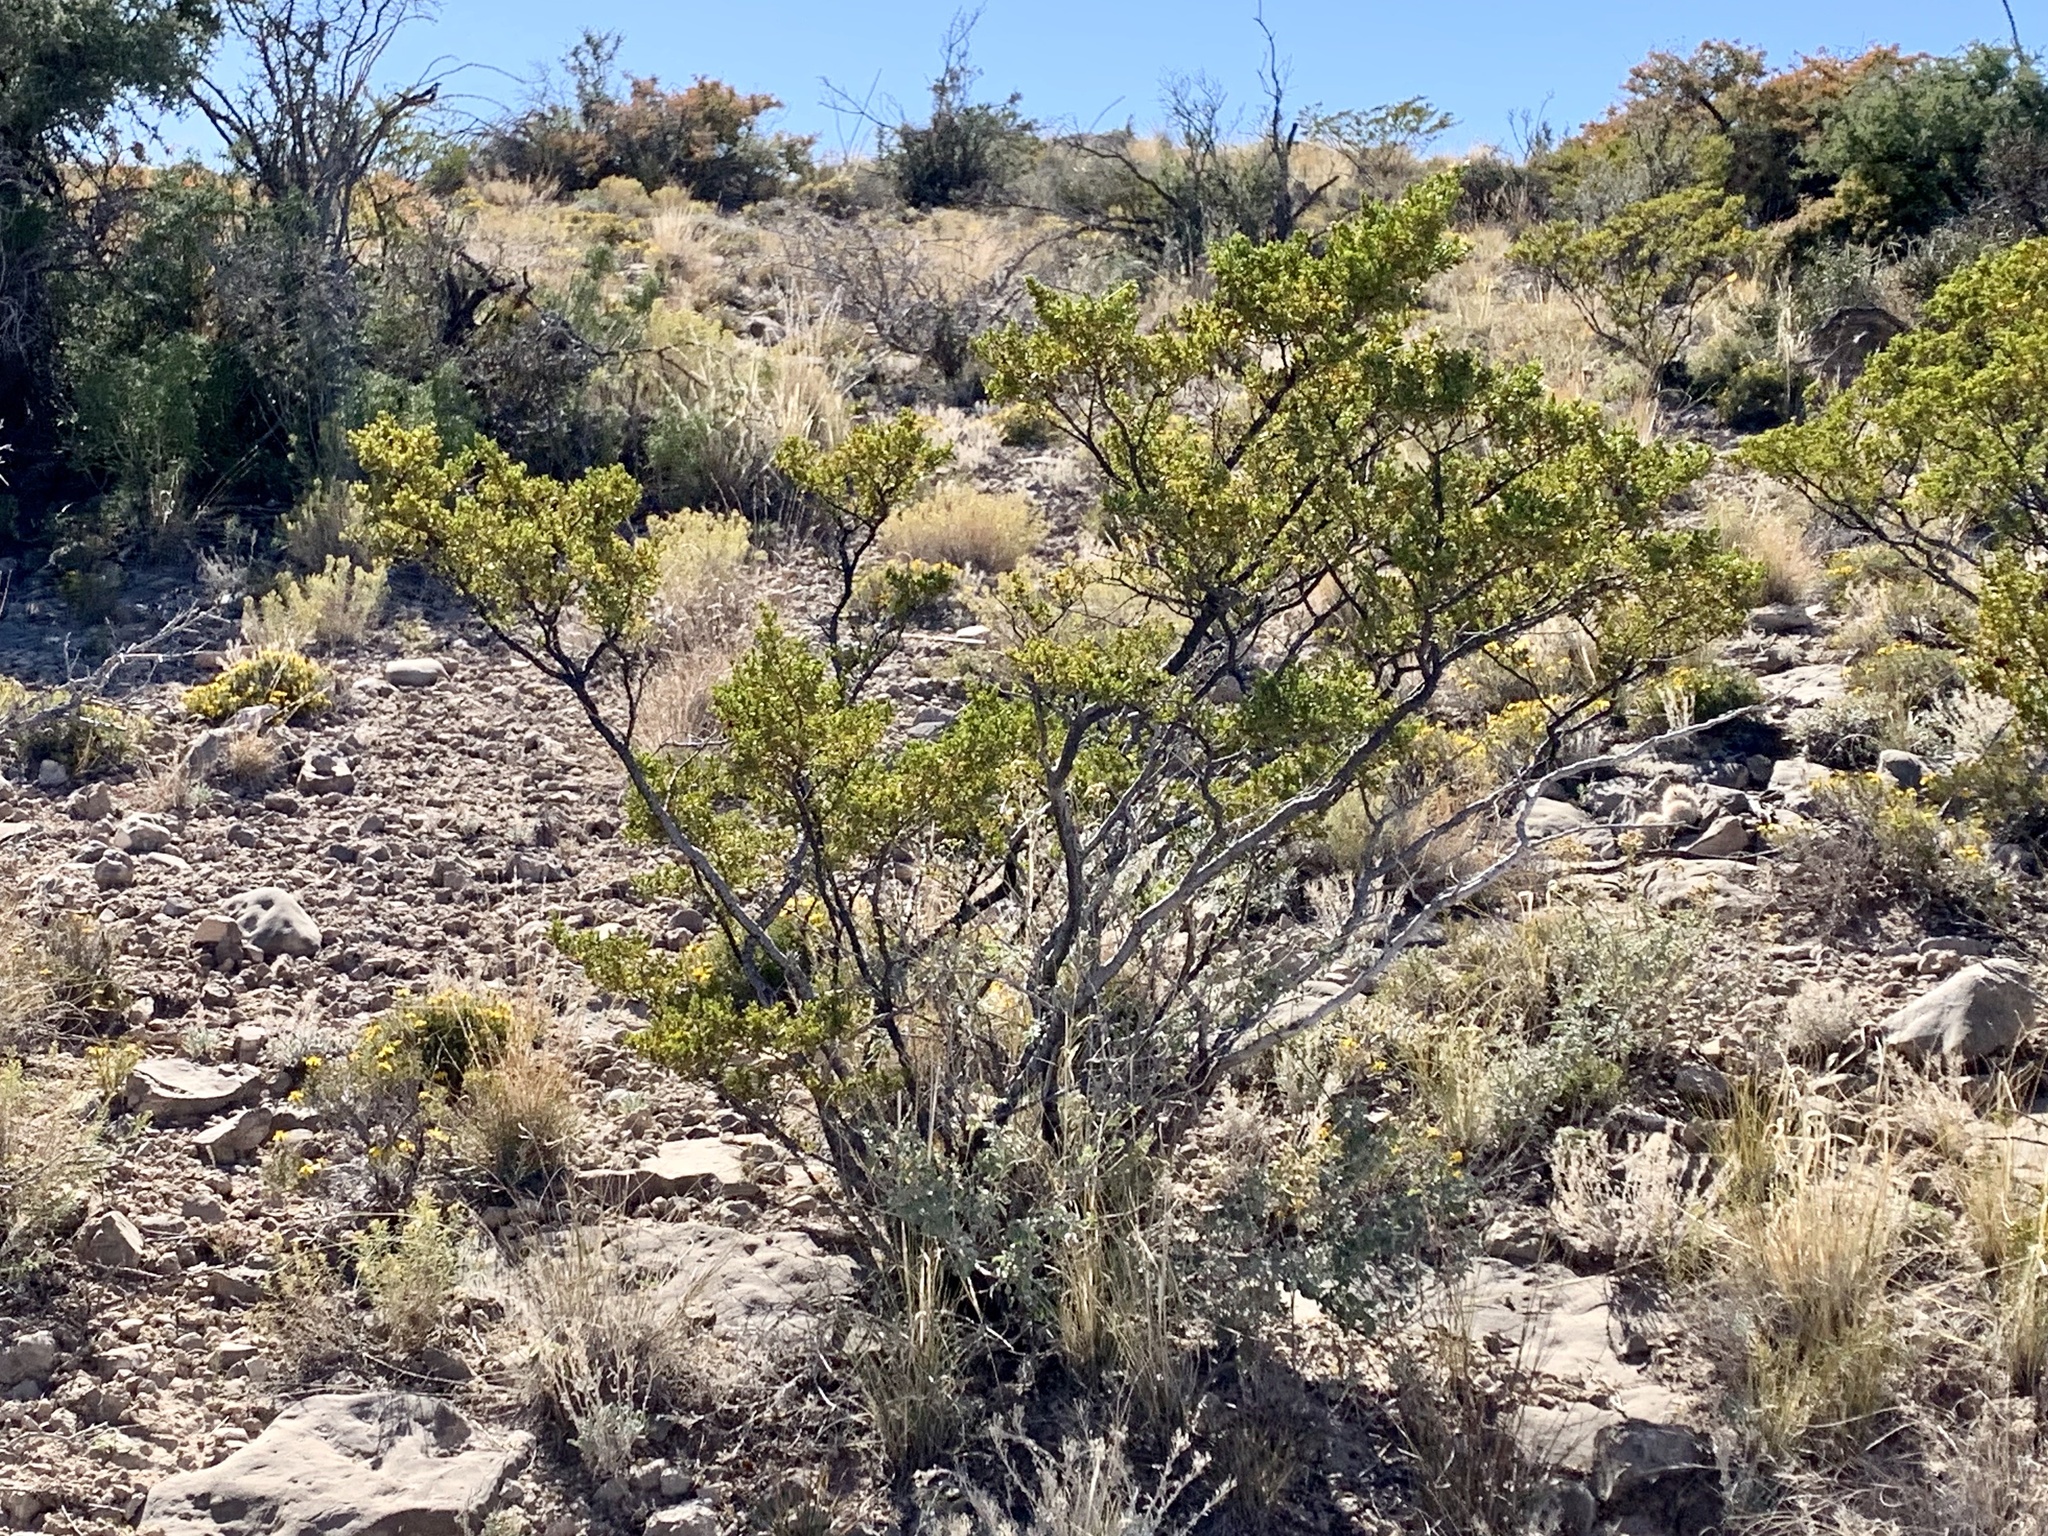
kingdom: Plantae
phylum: Tracheophyta
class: Magnoliopsida
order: Zygophyllales
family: Zygophyllaceae
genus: Larrea
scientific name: Larrea tridentata
